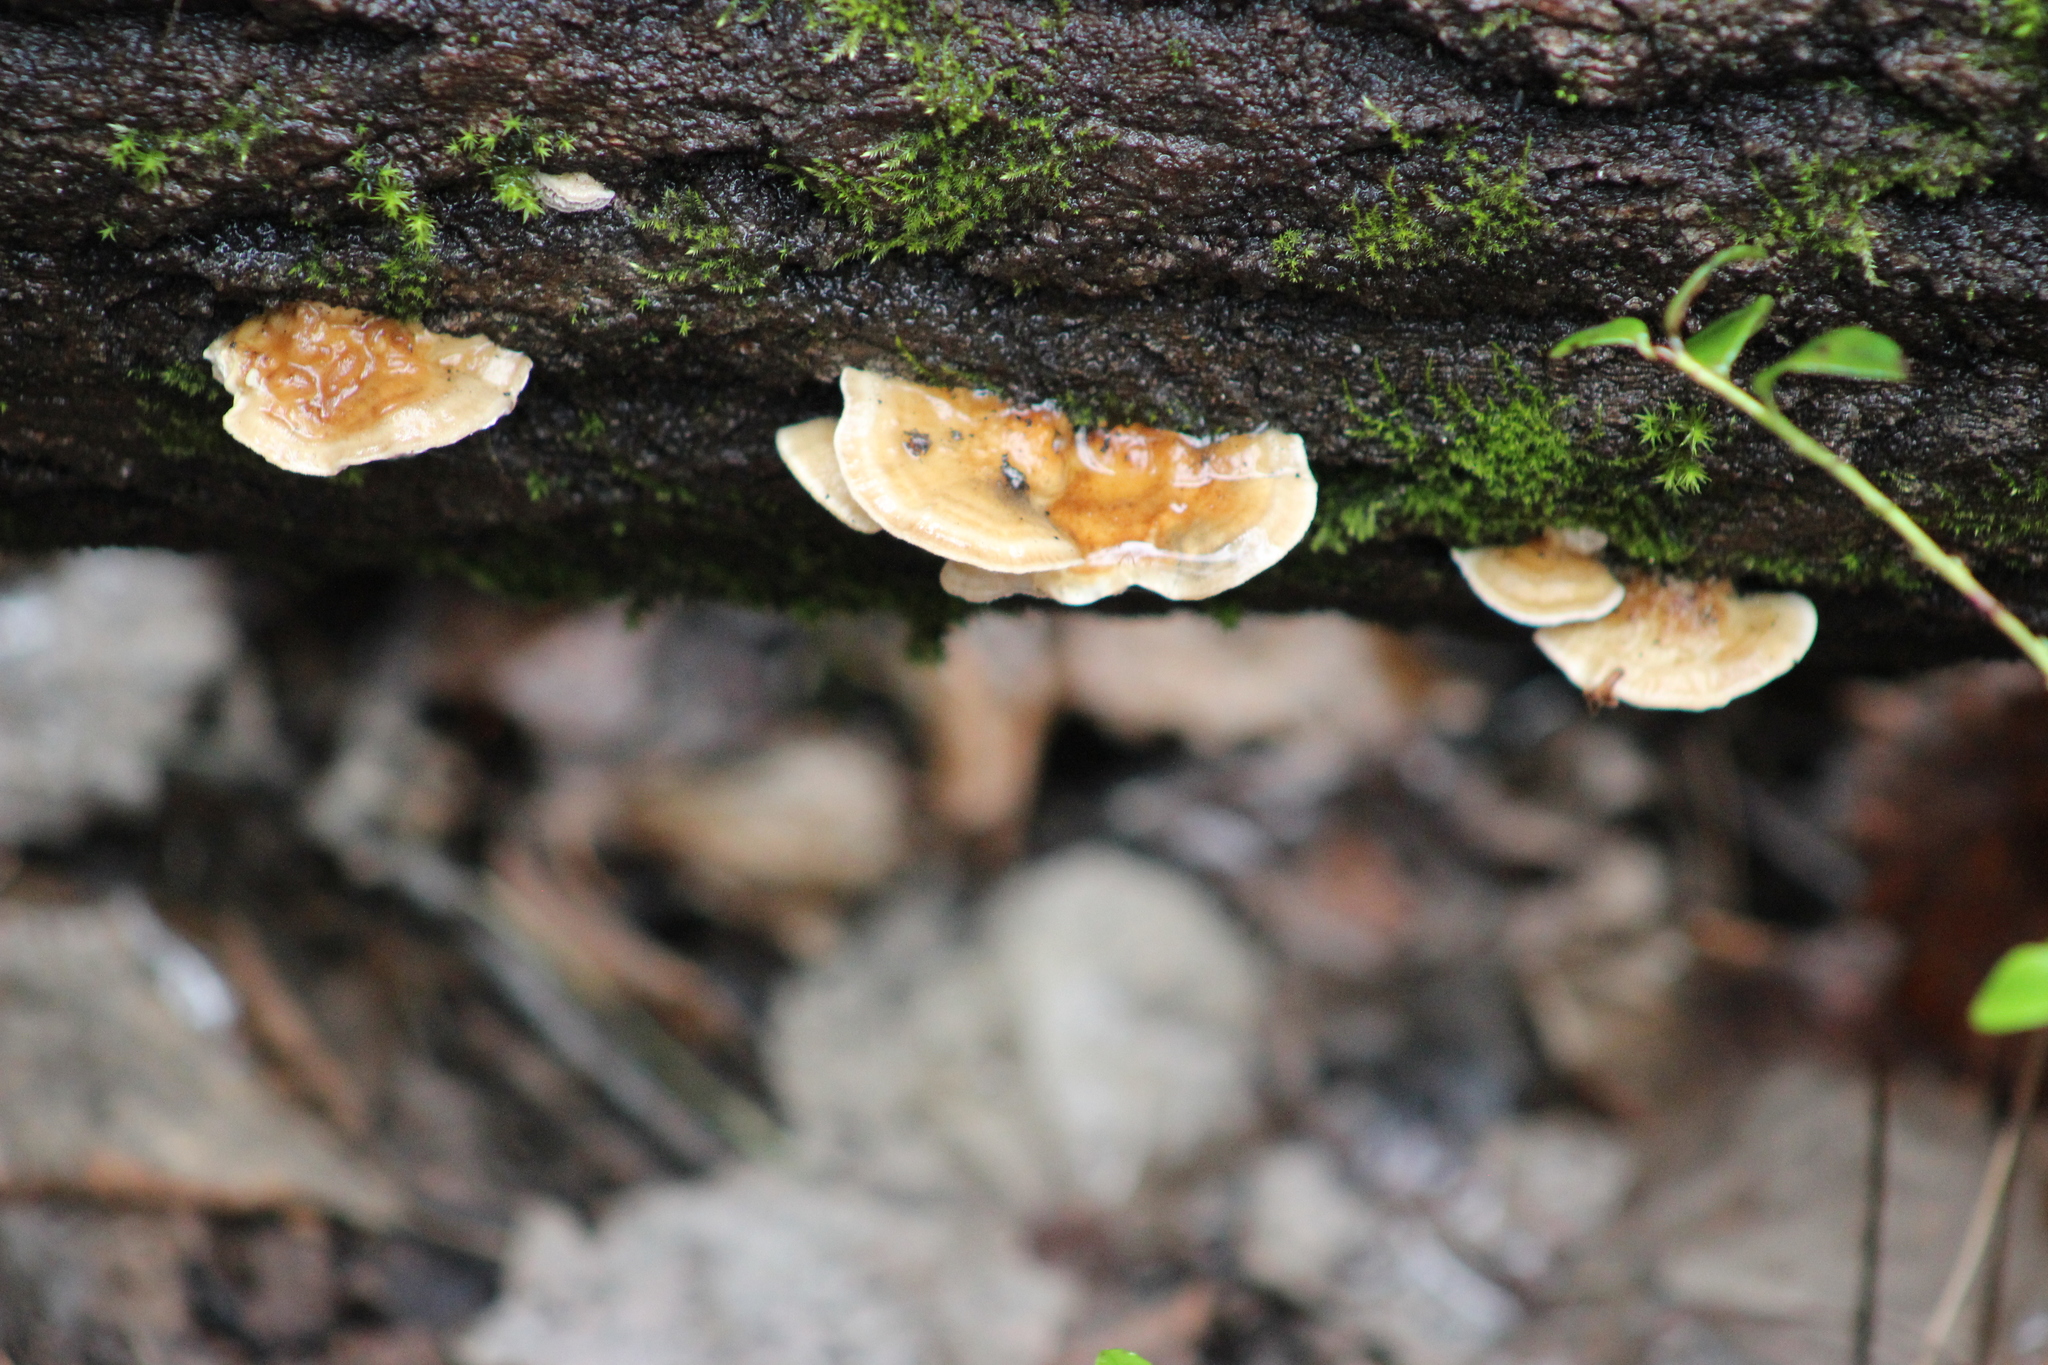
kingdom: Fungi
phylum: Basidiomycota
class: Agaricomycetes
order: Polyporales
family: Polyporaceae
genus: Trametes
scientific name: Trametes ochracea
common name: Ochre bracket
